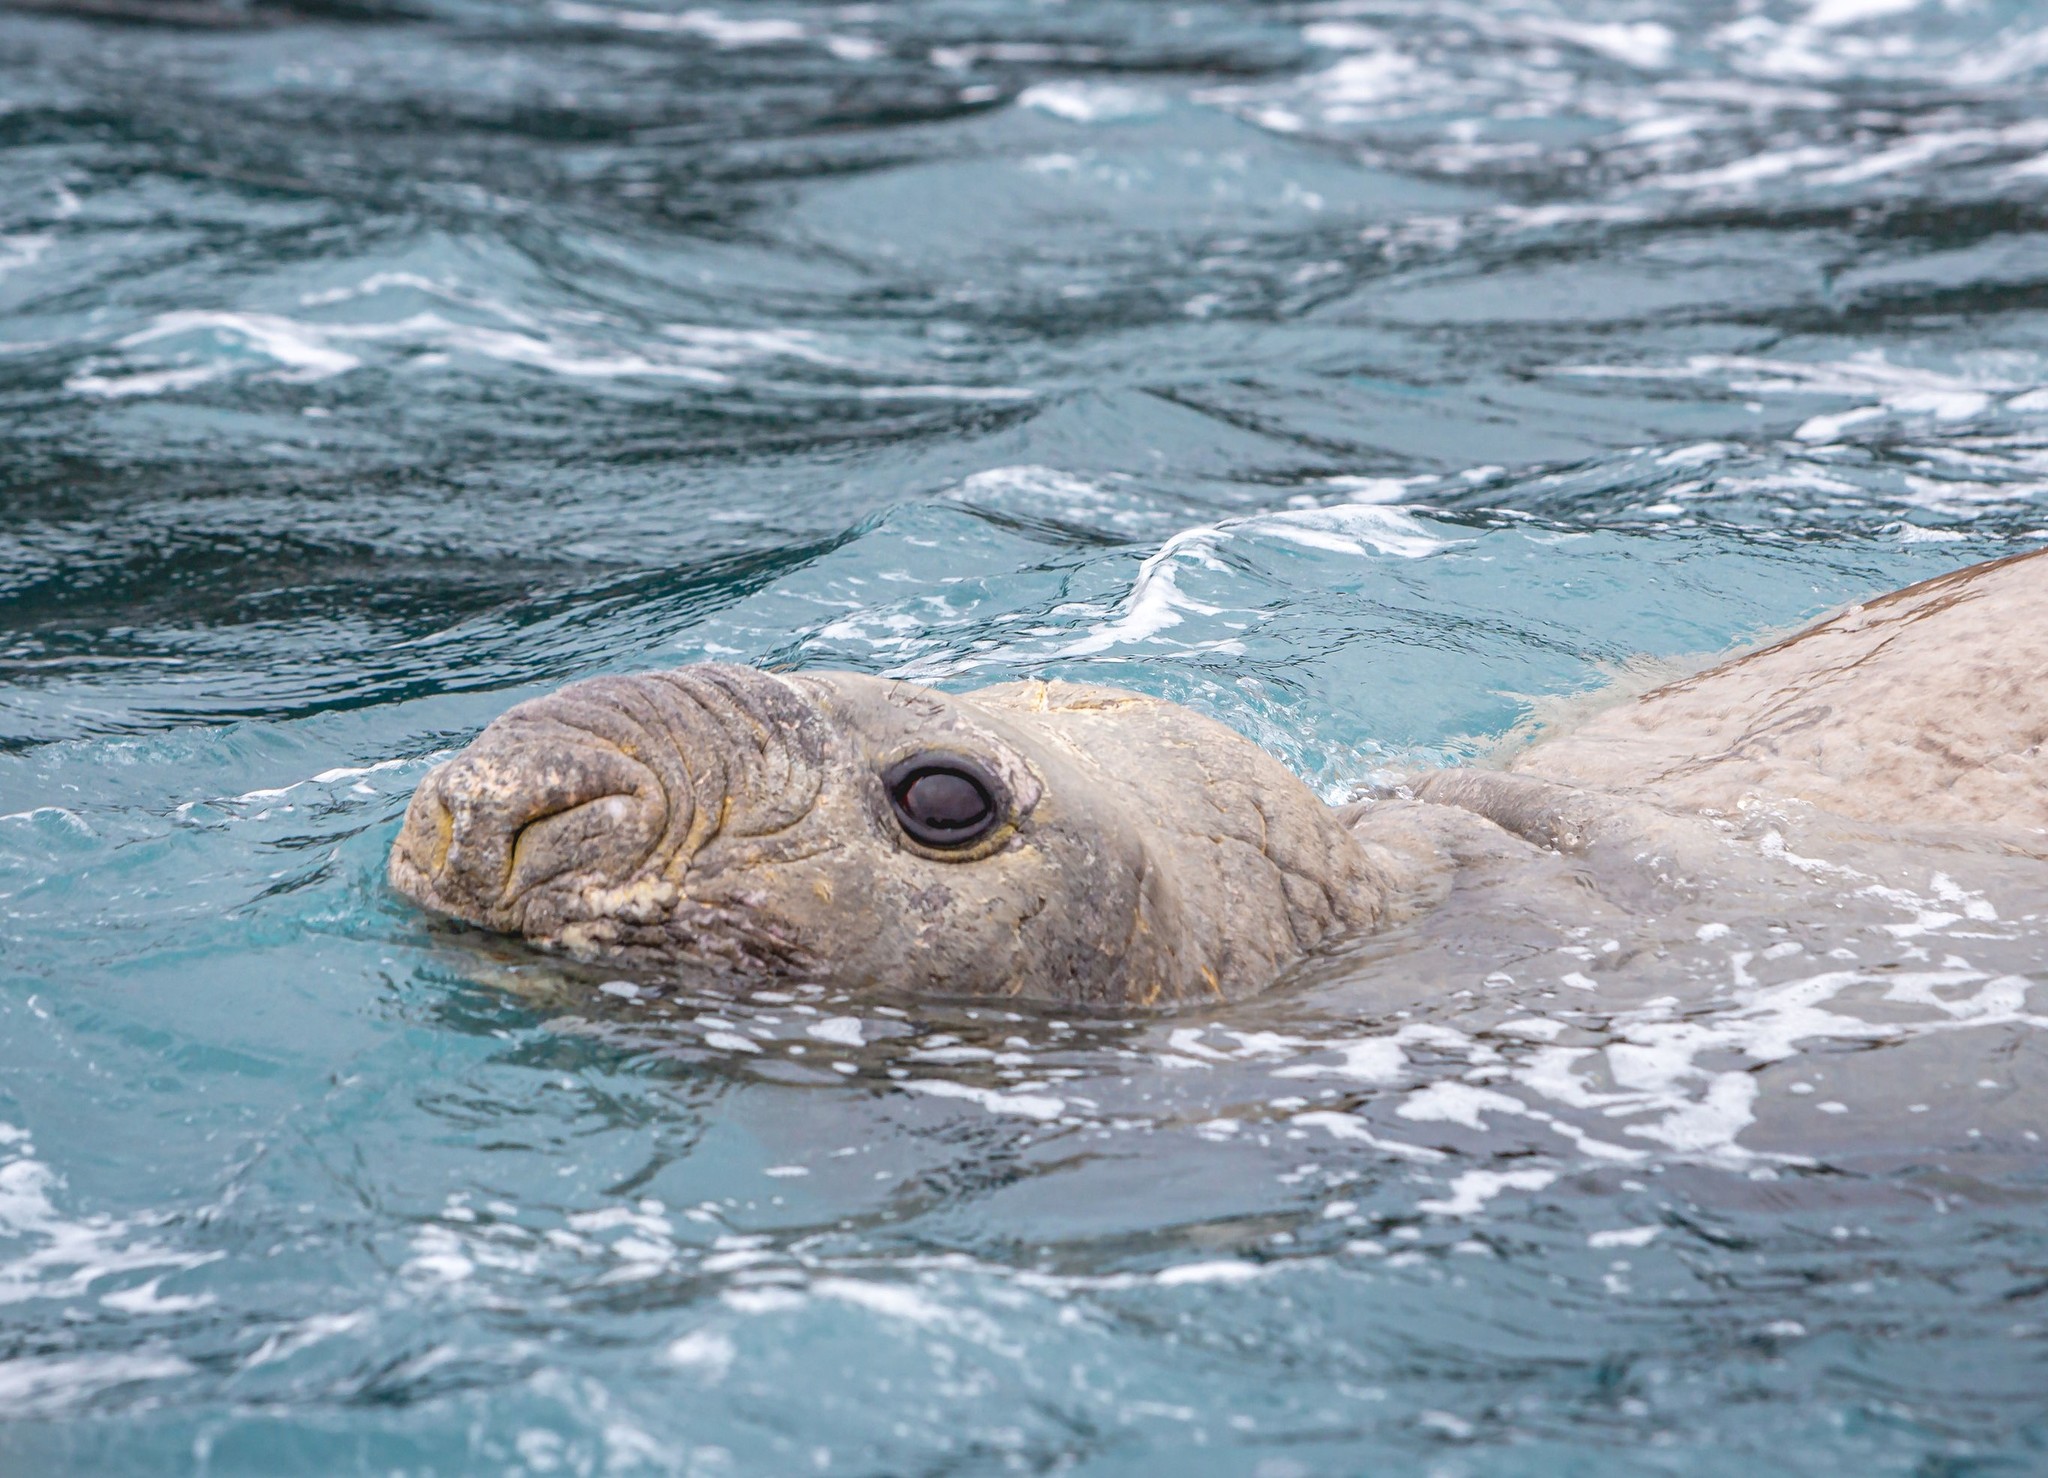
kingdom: Animalia
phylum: Chordata
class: Mammalia
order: Carnivora
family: Phocidae
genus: Mirounga
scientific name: Mirounga leonina
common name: Southern elephant seal
